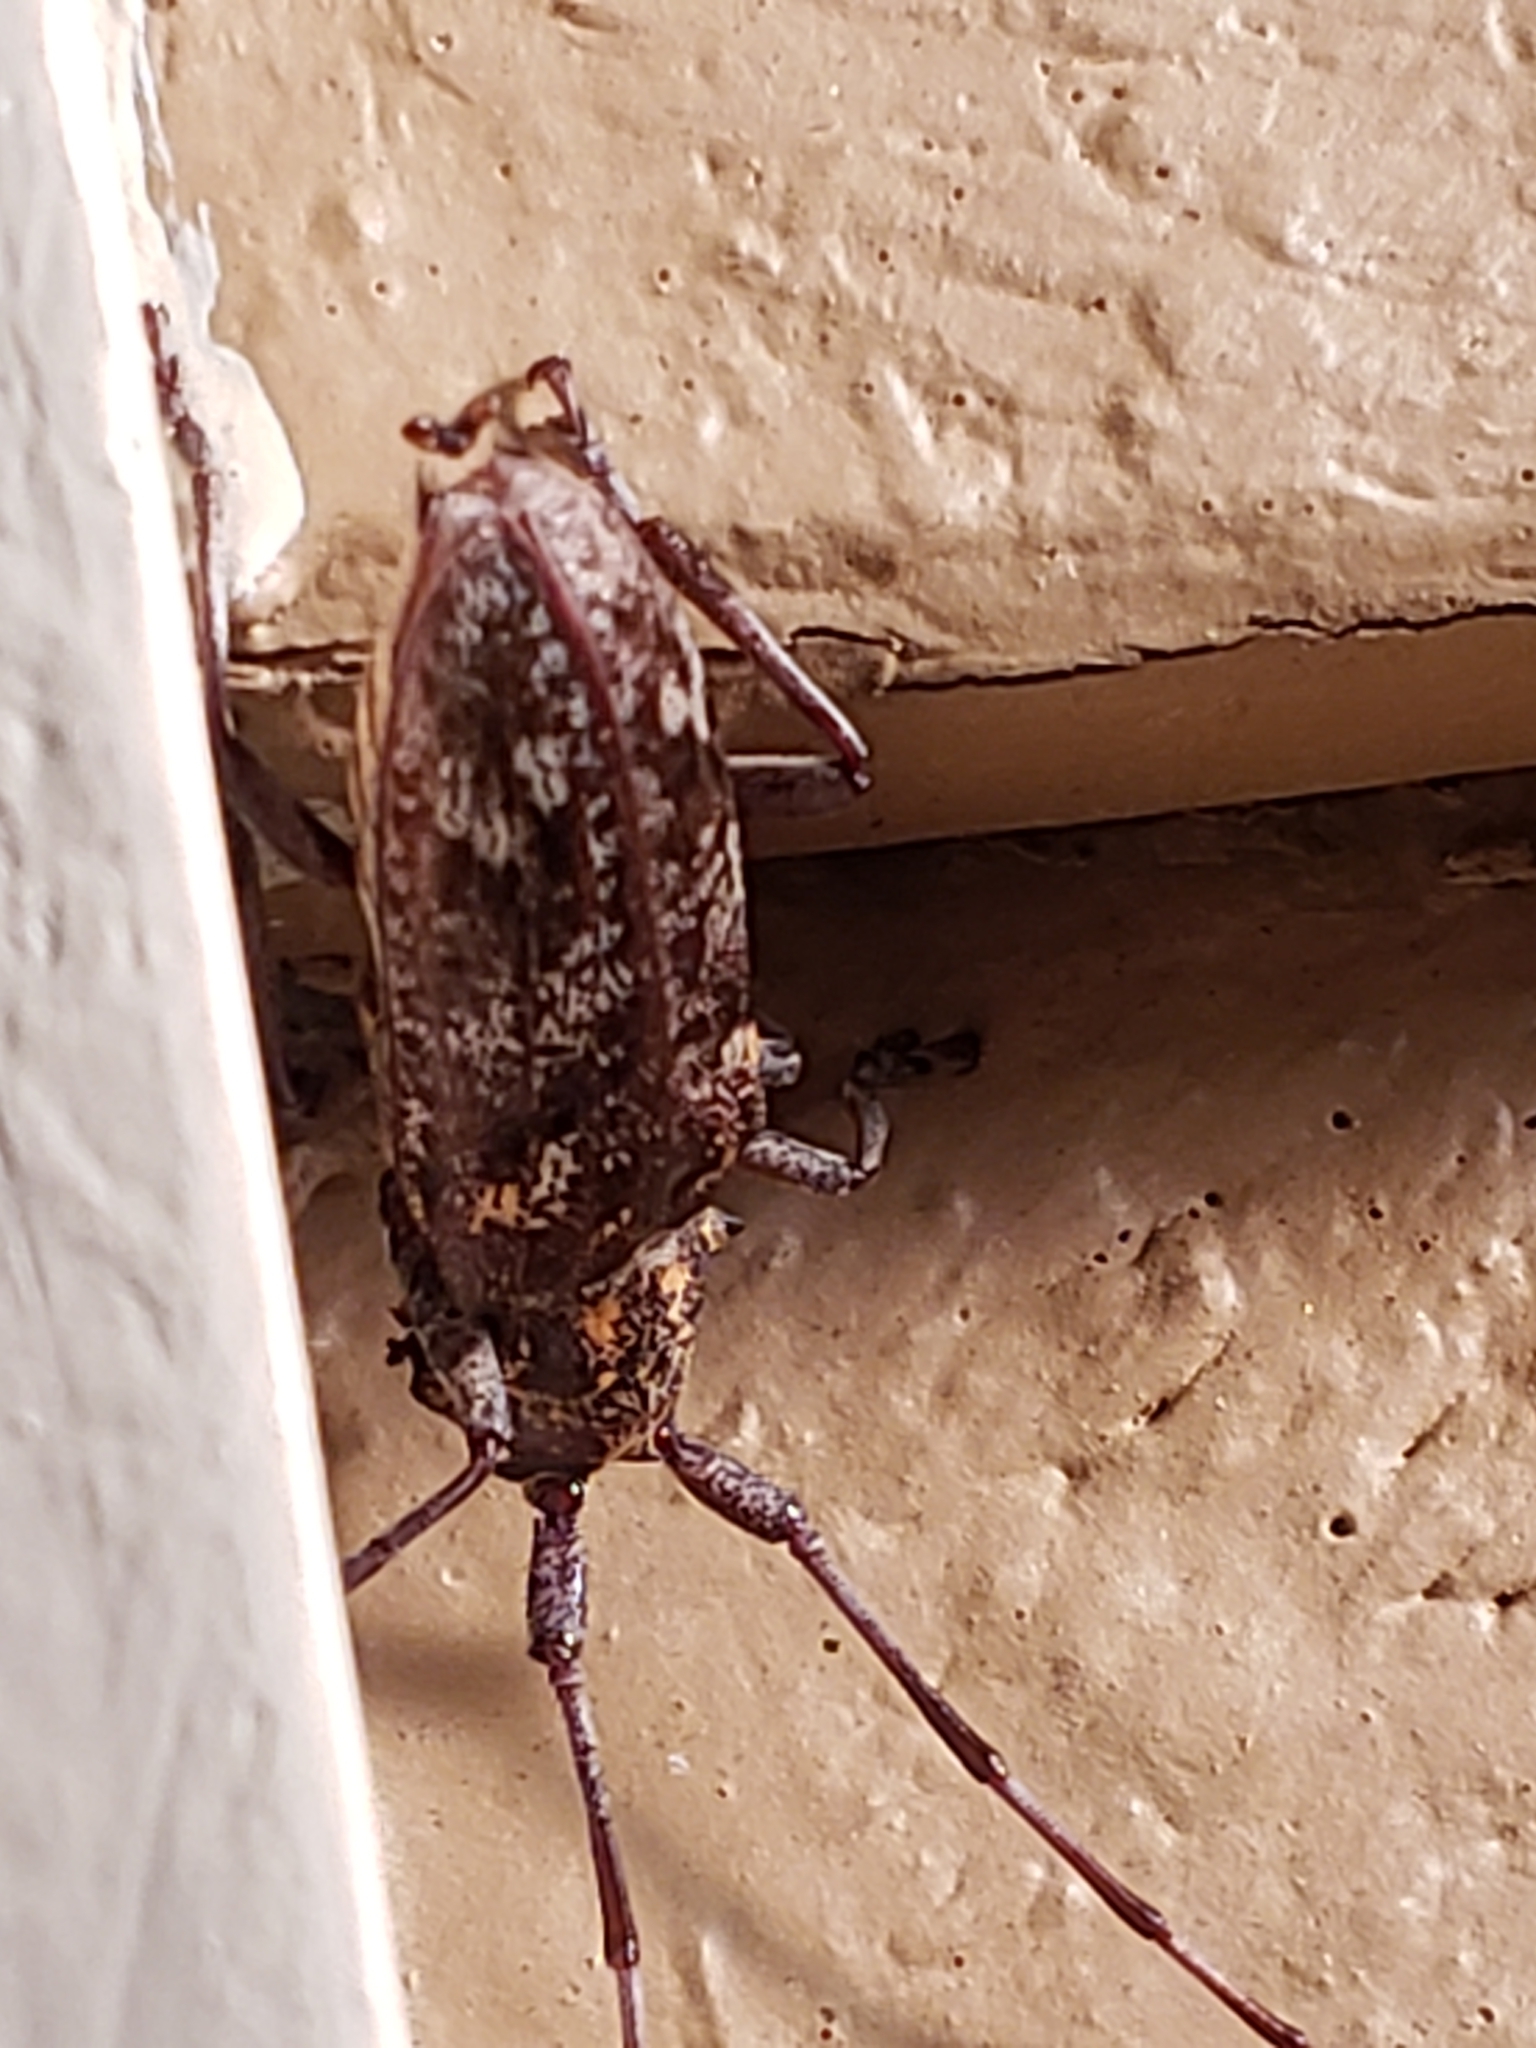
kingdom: Animalia
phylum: Arthropoda
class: Insecta
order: Coleoptera
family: Cerambycidae
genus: Monochamus
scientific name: Monochamus carolinensis
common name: Carolina pine sawyer
